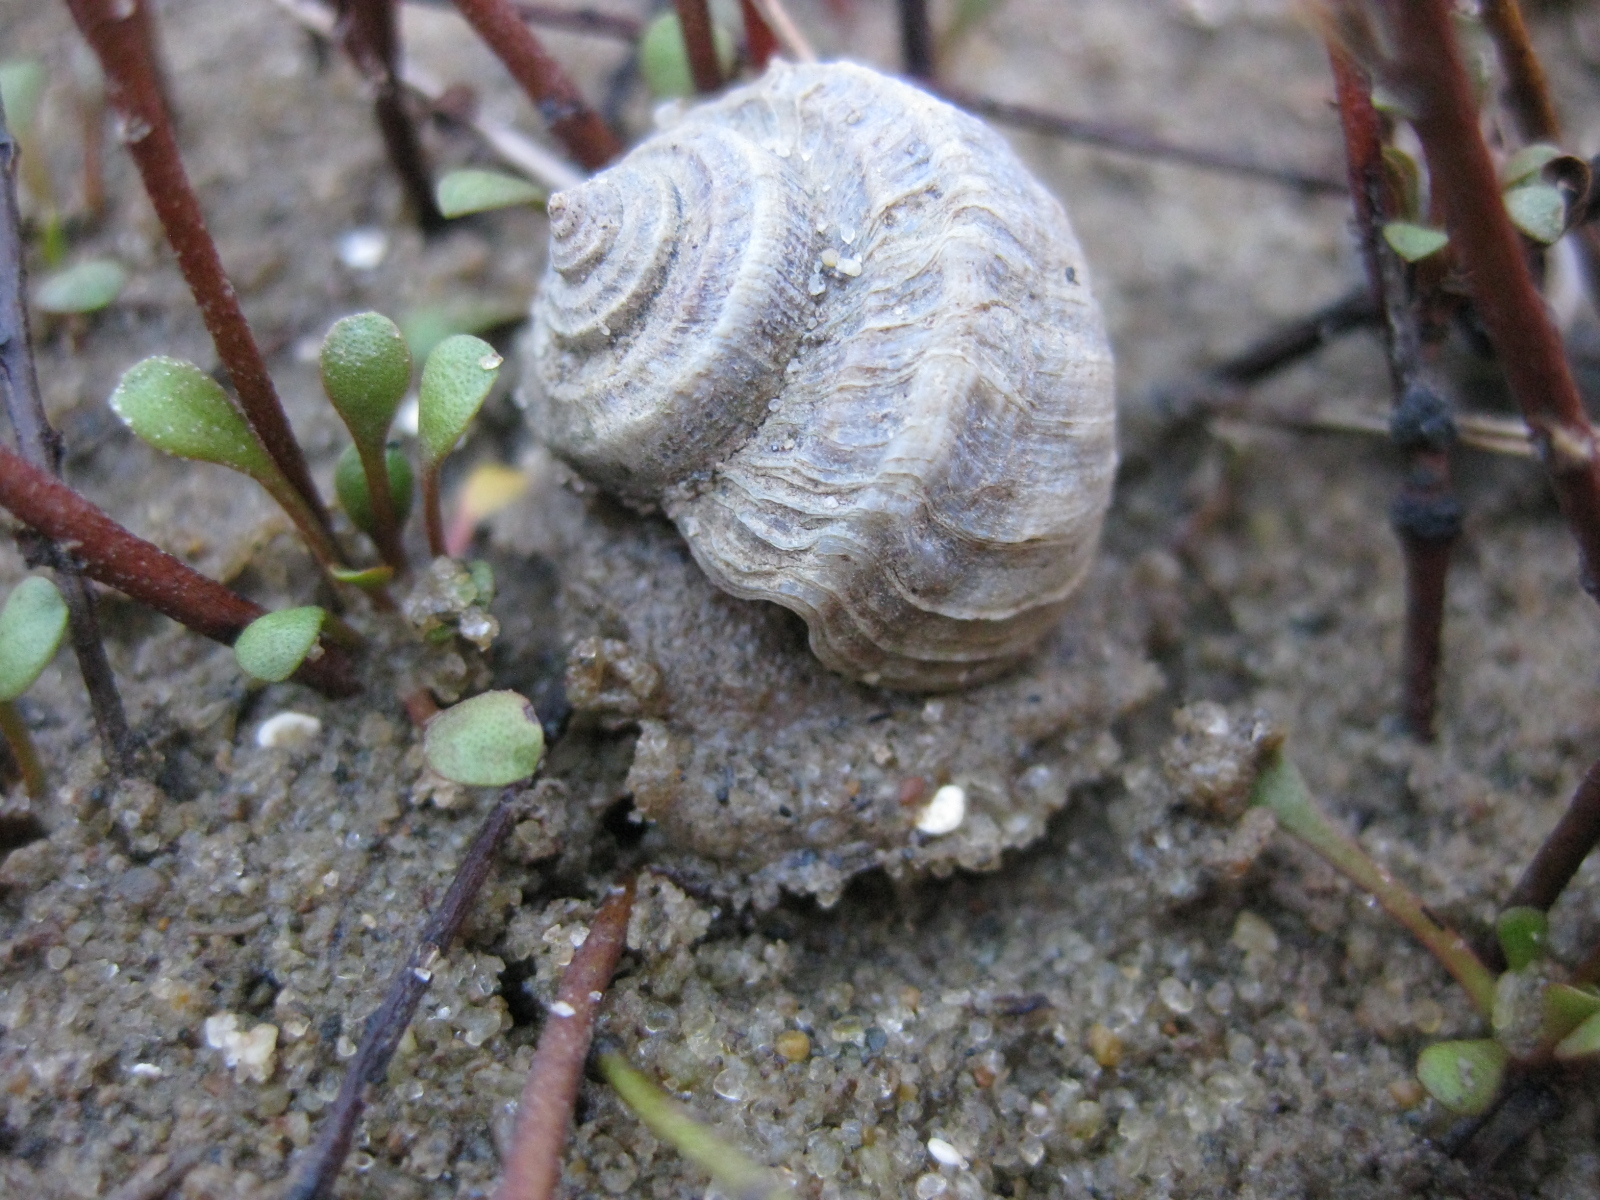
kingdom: Animalia
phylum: Mollusca
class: Gastropoda
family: Amphibolidae
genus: Amphibola
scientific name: Amphibola crenata
